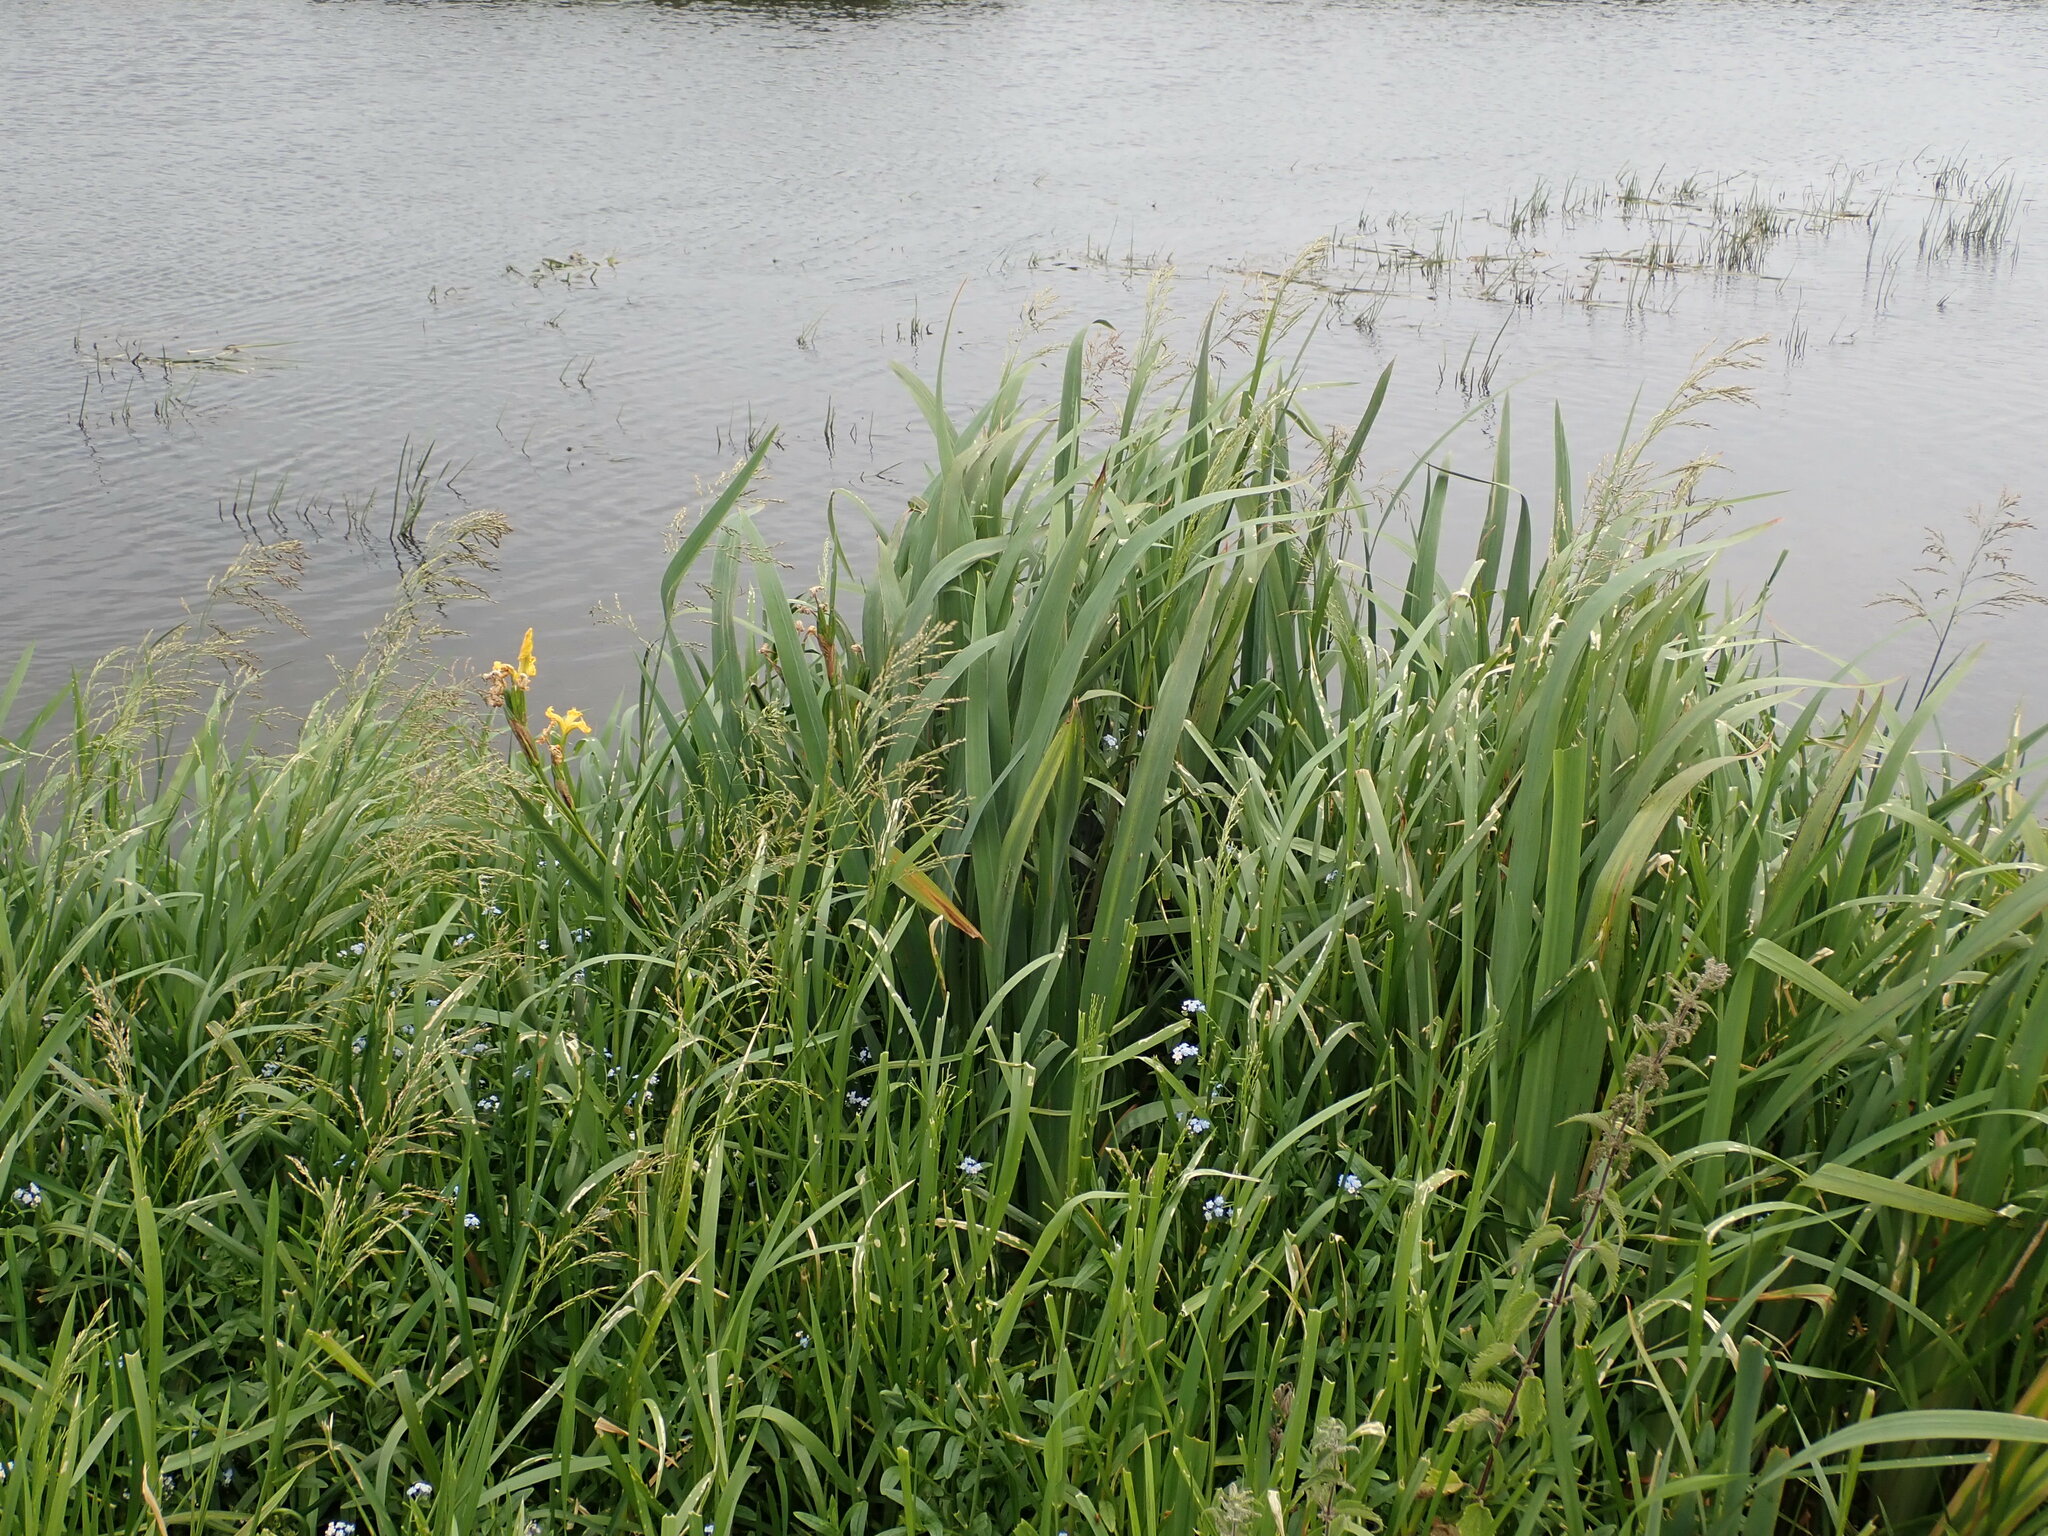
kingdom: Plantae
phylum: Tracheophyta
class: Liliopsida
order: Asparagales
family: Iridaceae
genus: Iris
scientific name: Iris pseudacorus
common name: Yellow flag
